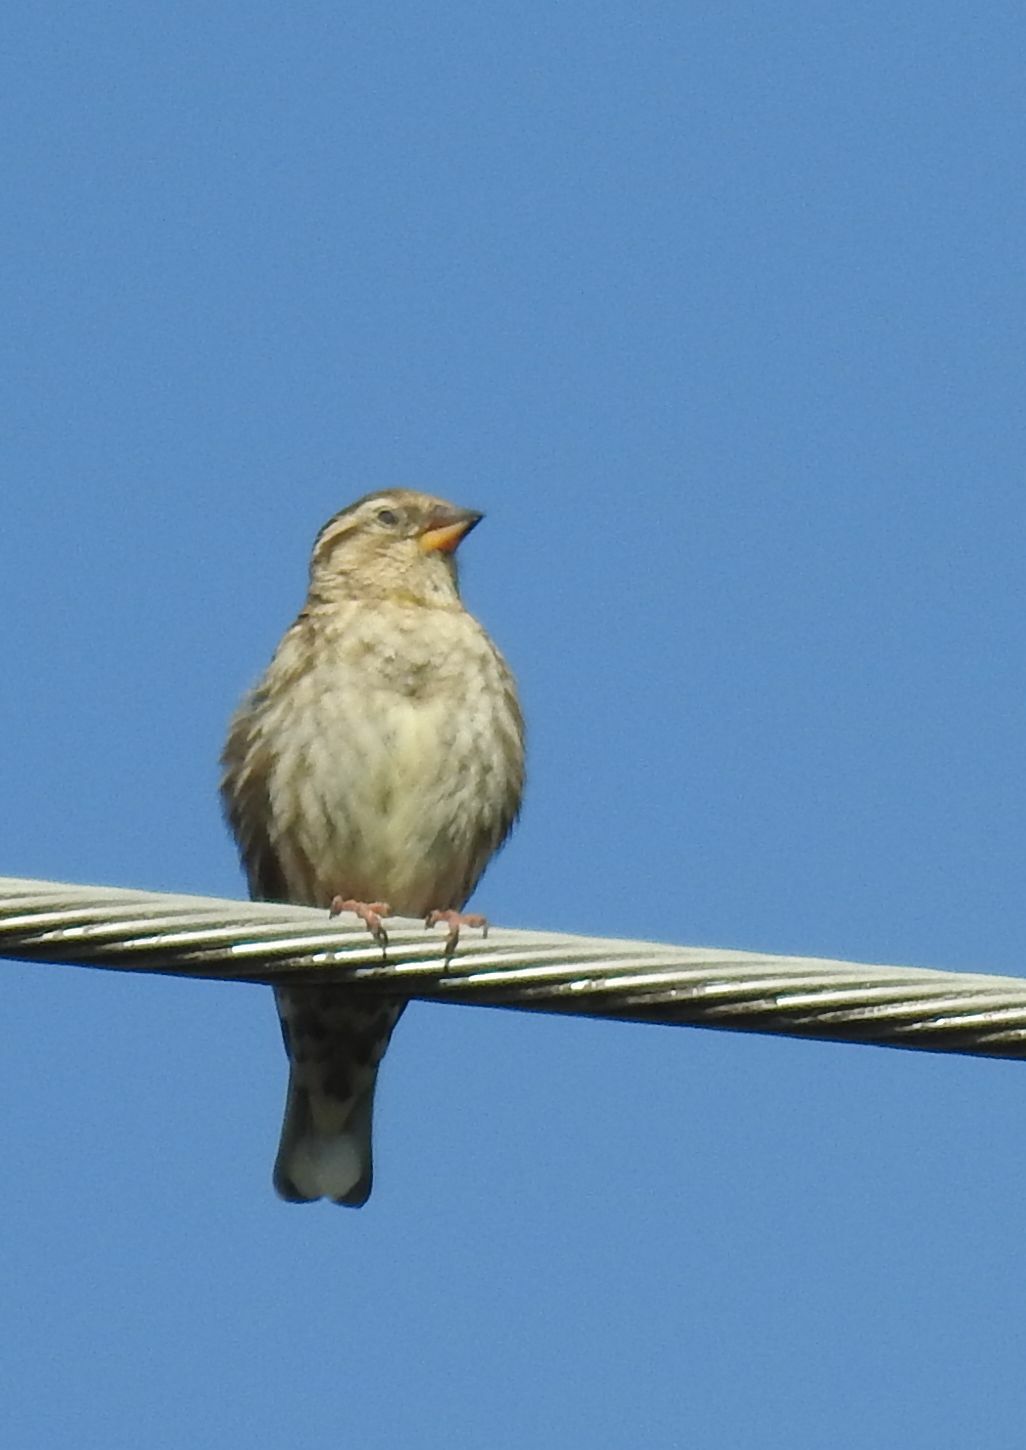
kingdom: Animalia
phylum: Chordata
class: Aves
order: Passeriformes
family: Passeridae
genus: Petronia
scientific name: Petronia petronia
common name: Rock sparrow
